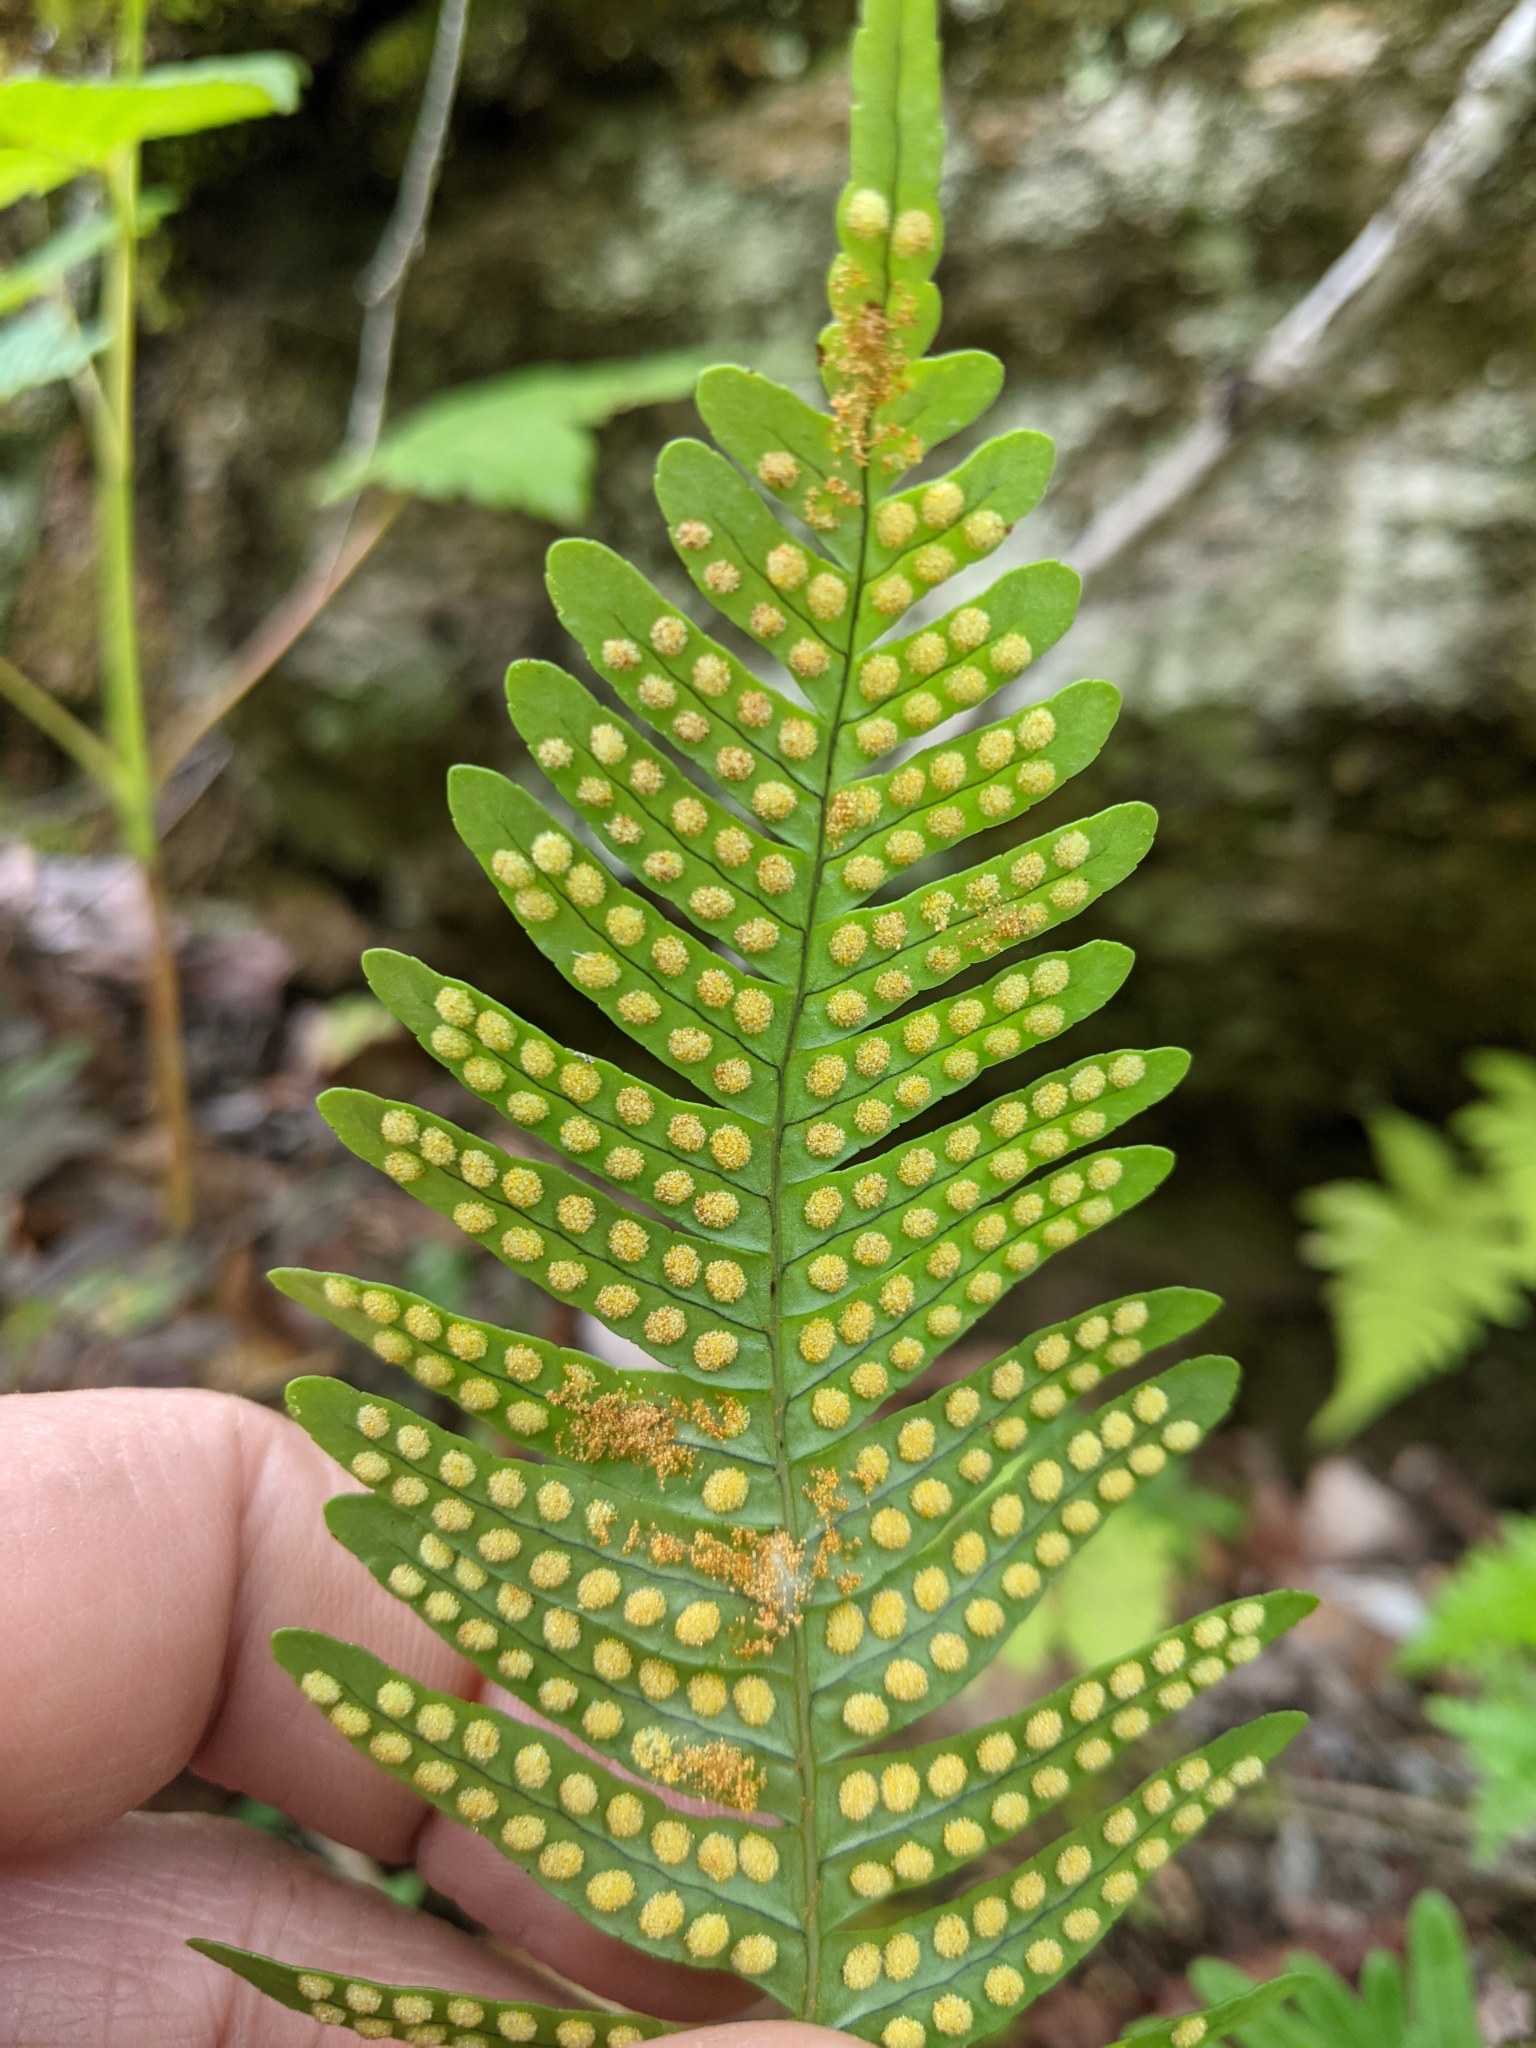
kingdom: Plantae
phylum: Tracheophyta
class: Polypodiopsida
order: Polypodiales
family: Polypodiaceae
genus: Polypodium
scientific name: Polypodium virginianum
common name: American wall fern
